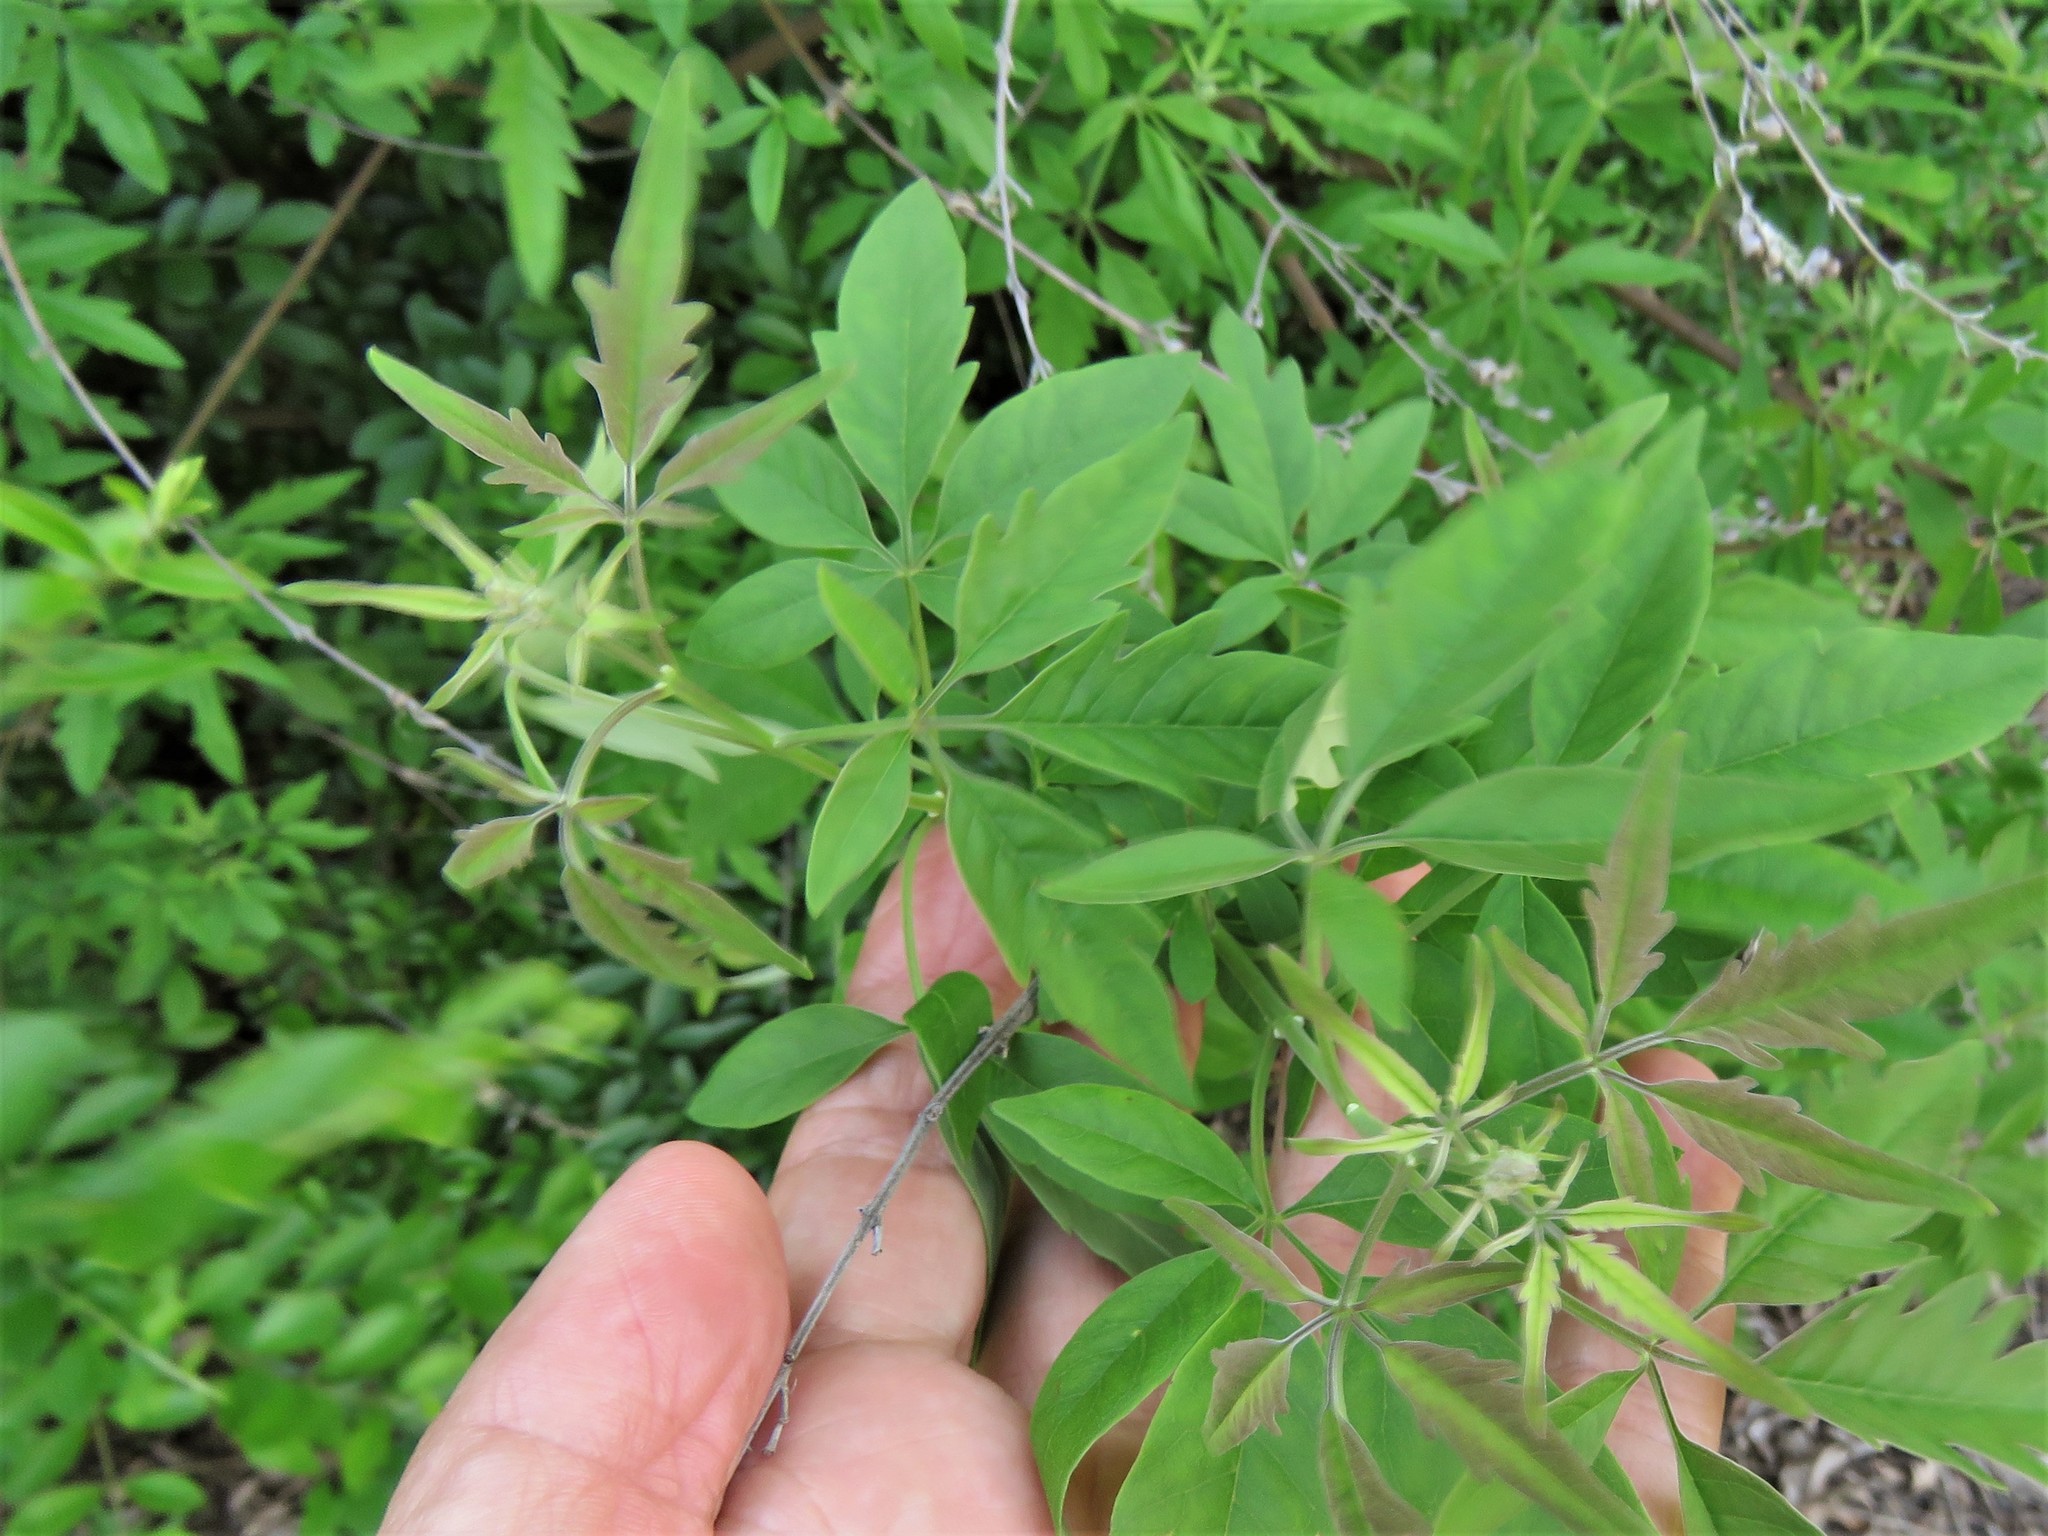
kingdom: Plantae
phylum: Tracheophyta
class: Magnoliopsida
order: Lamiales
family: Lamiaceae
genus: Vitex
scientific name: Vitex negundo
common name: Chinese chastetree
